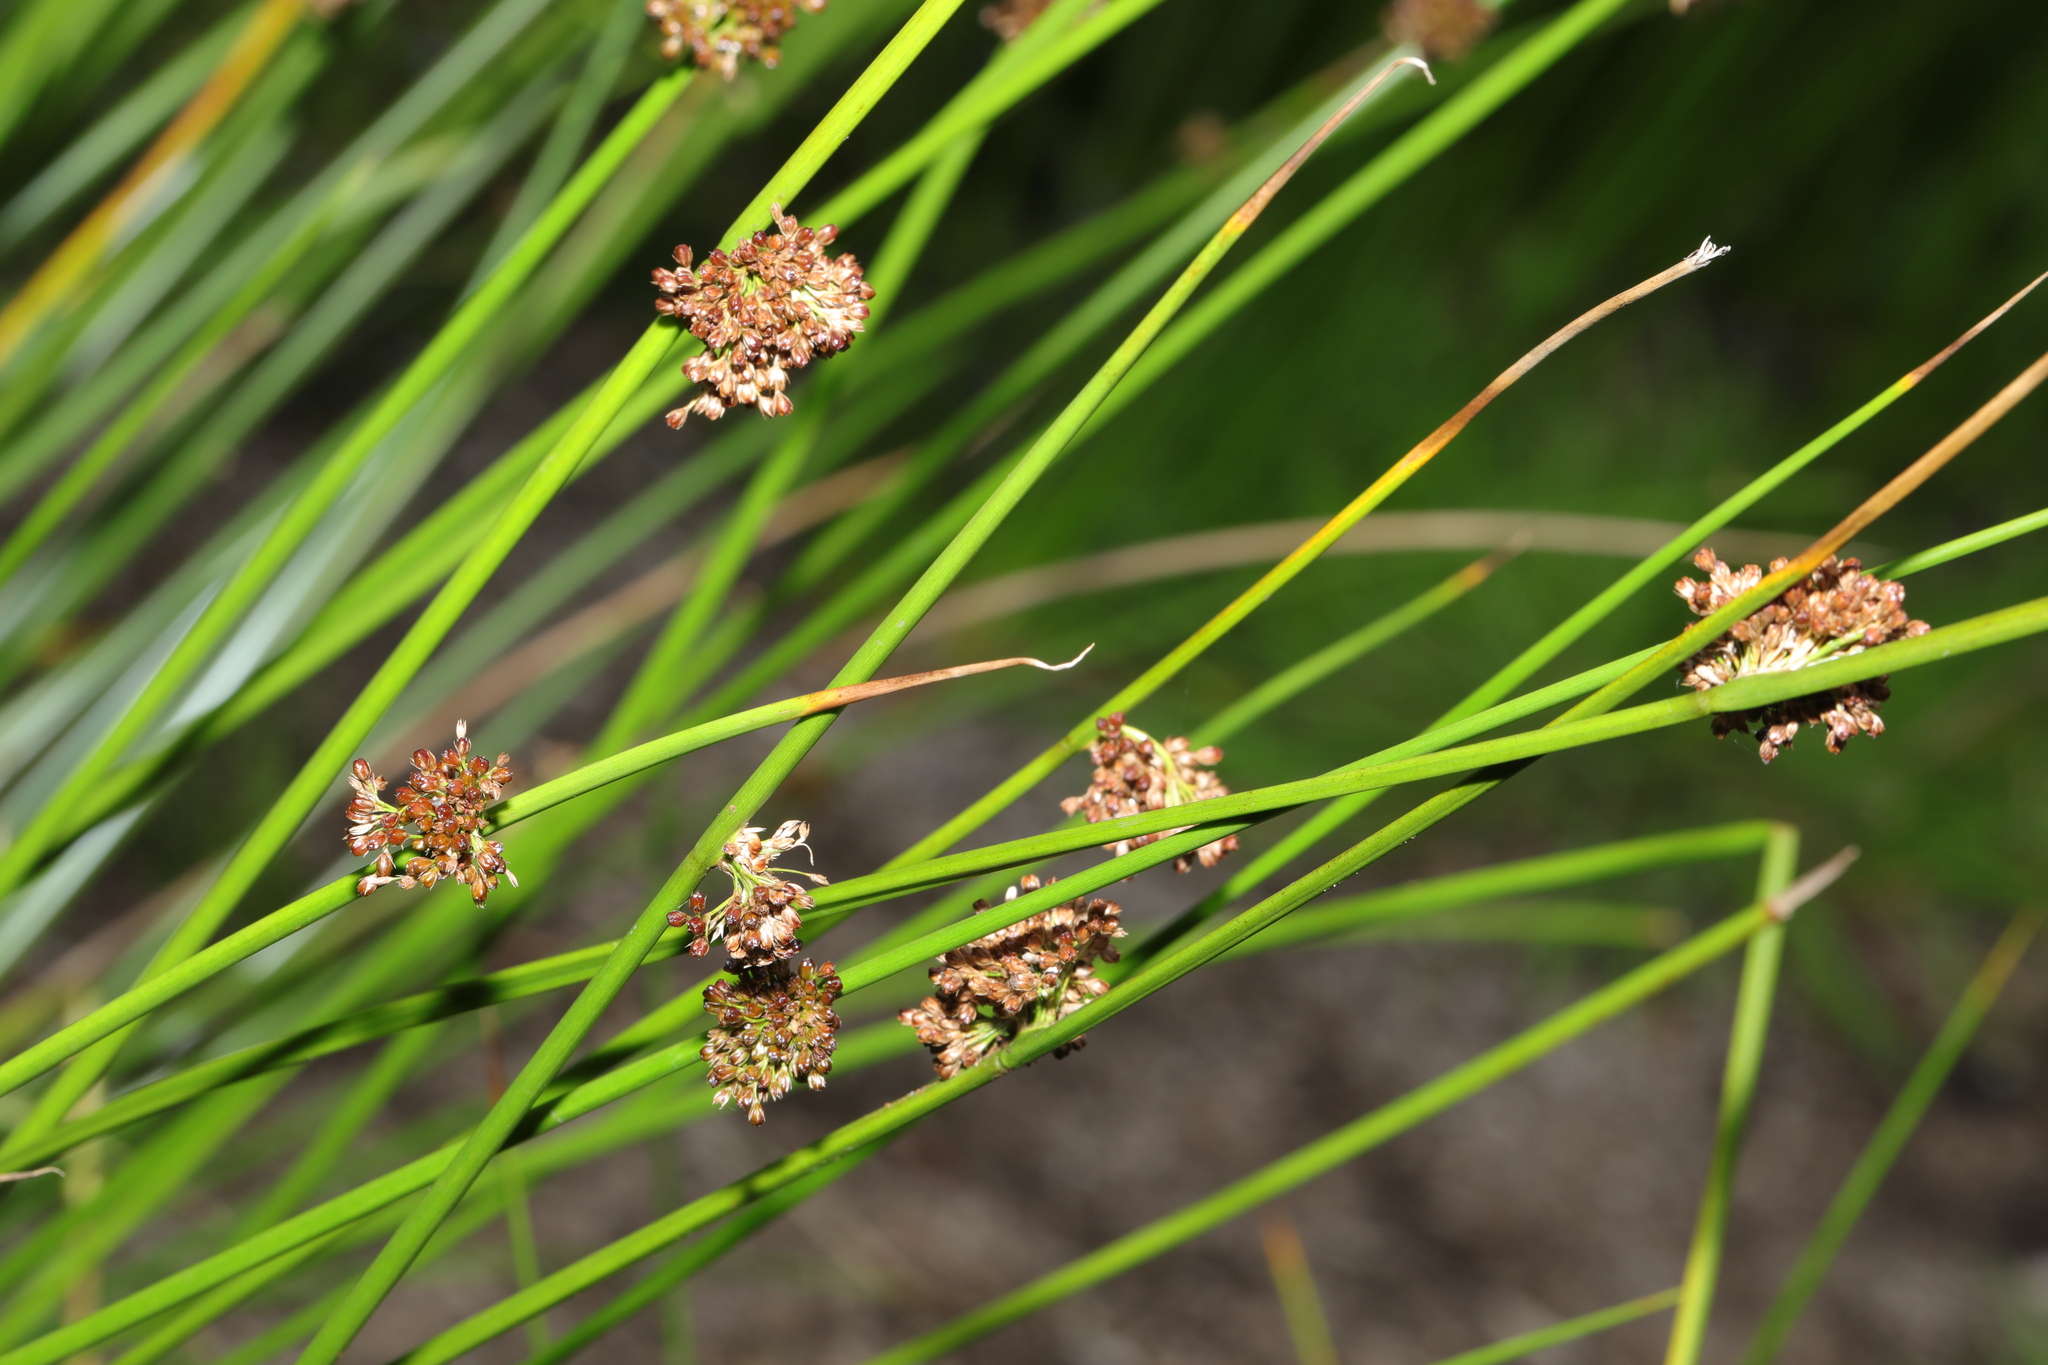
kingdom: Plantae
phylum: Tracheophyta
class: Liliopsida
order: Poales
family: Juncaceae
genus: Juncus
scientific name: Juncus effusus
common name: Soft rush
